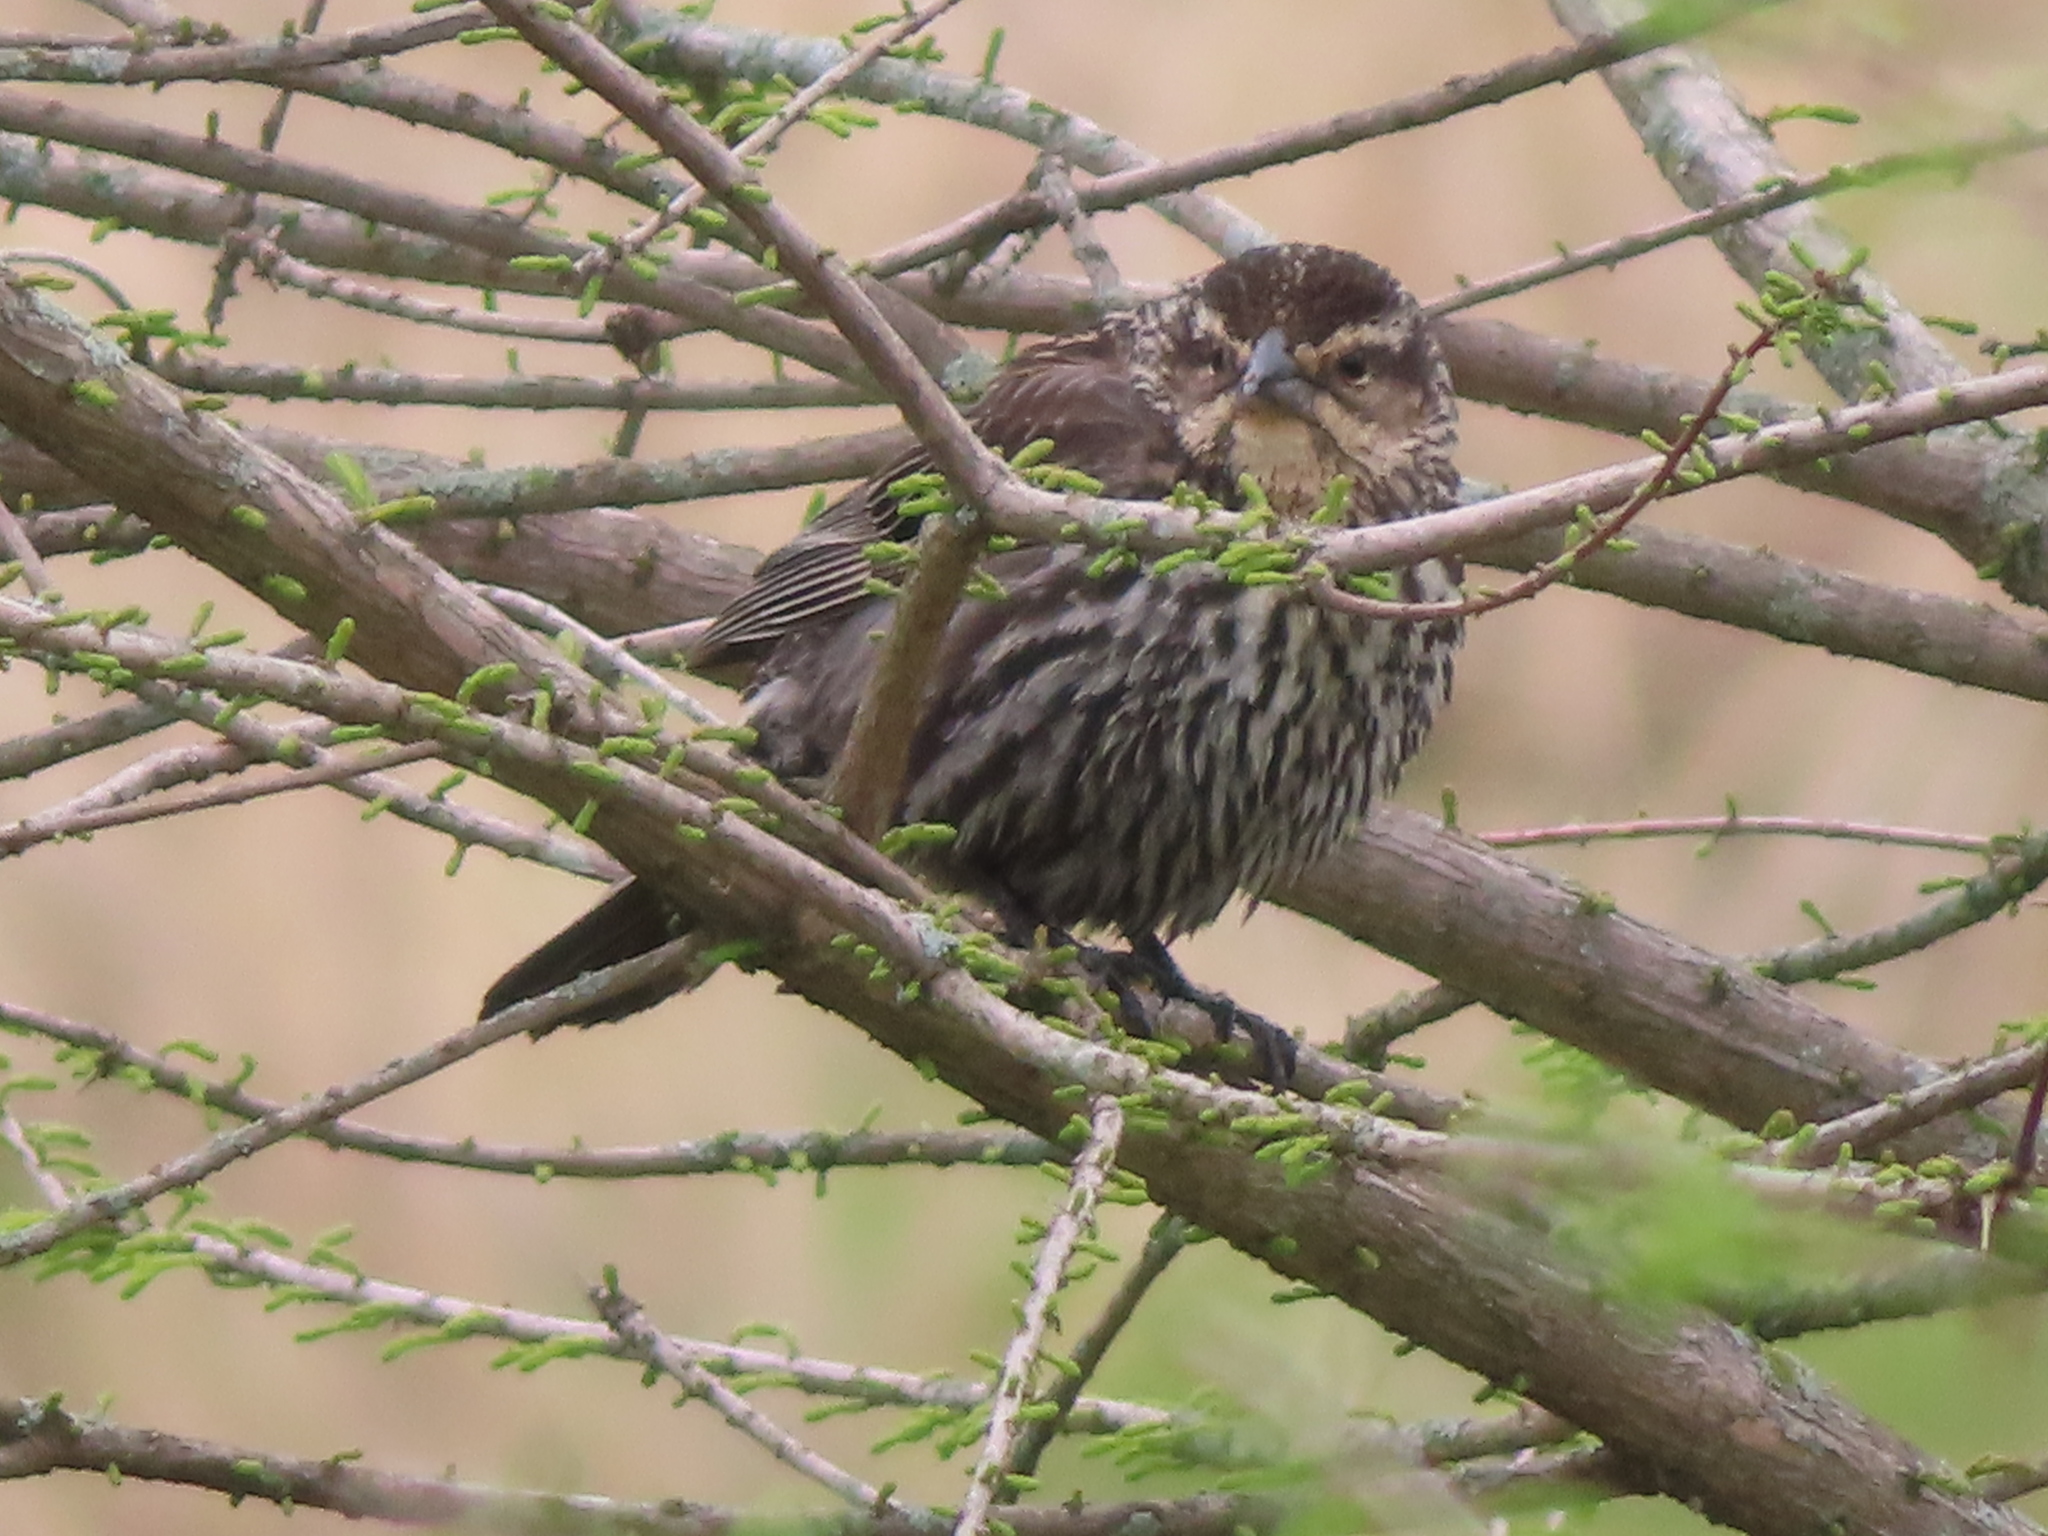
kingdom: Animalia
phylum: Chordata
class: Aves
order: Passeriformes
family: Icteridae
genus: Agelaius
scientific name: Agelaius phoeniceus
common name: Red-winged blackbird
